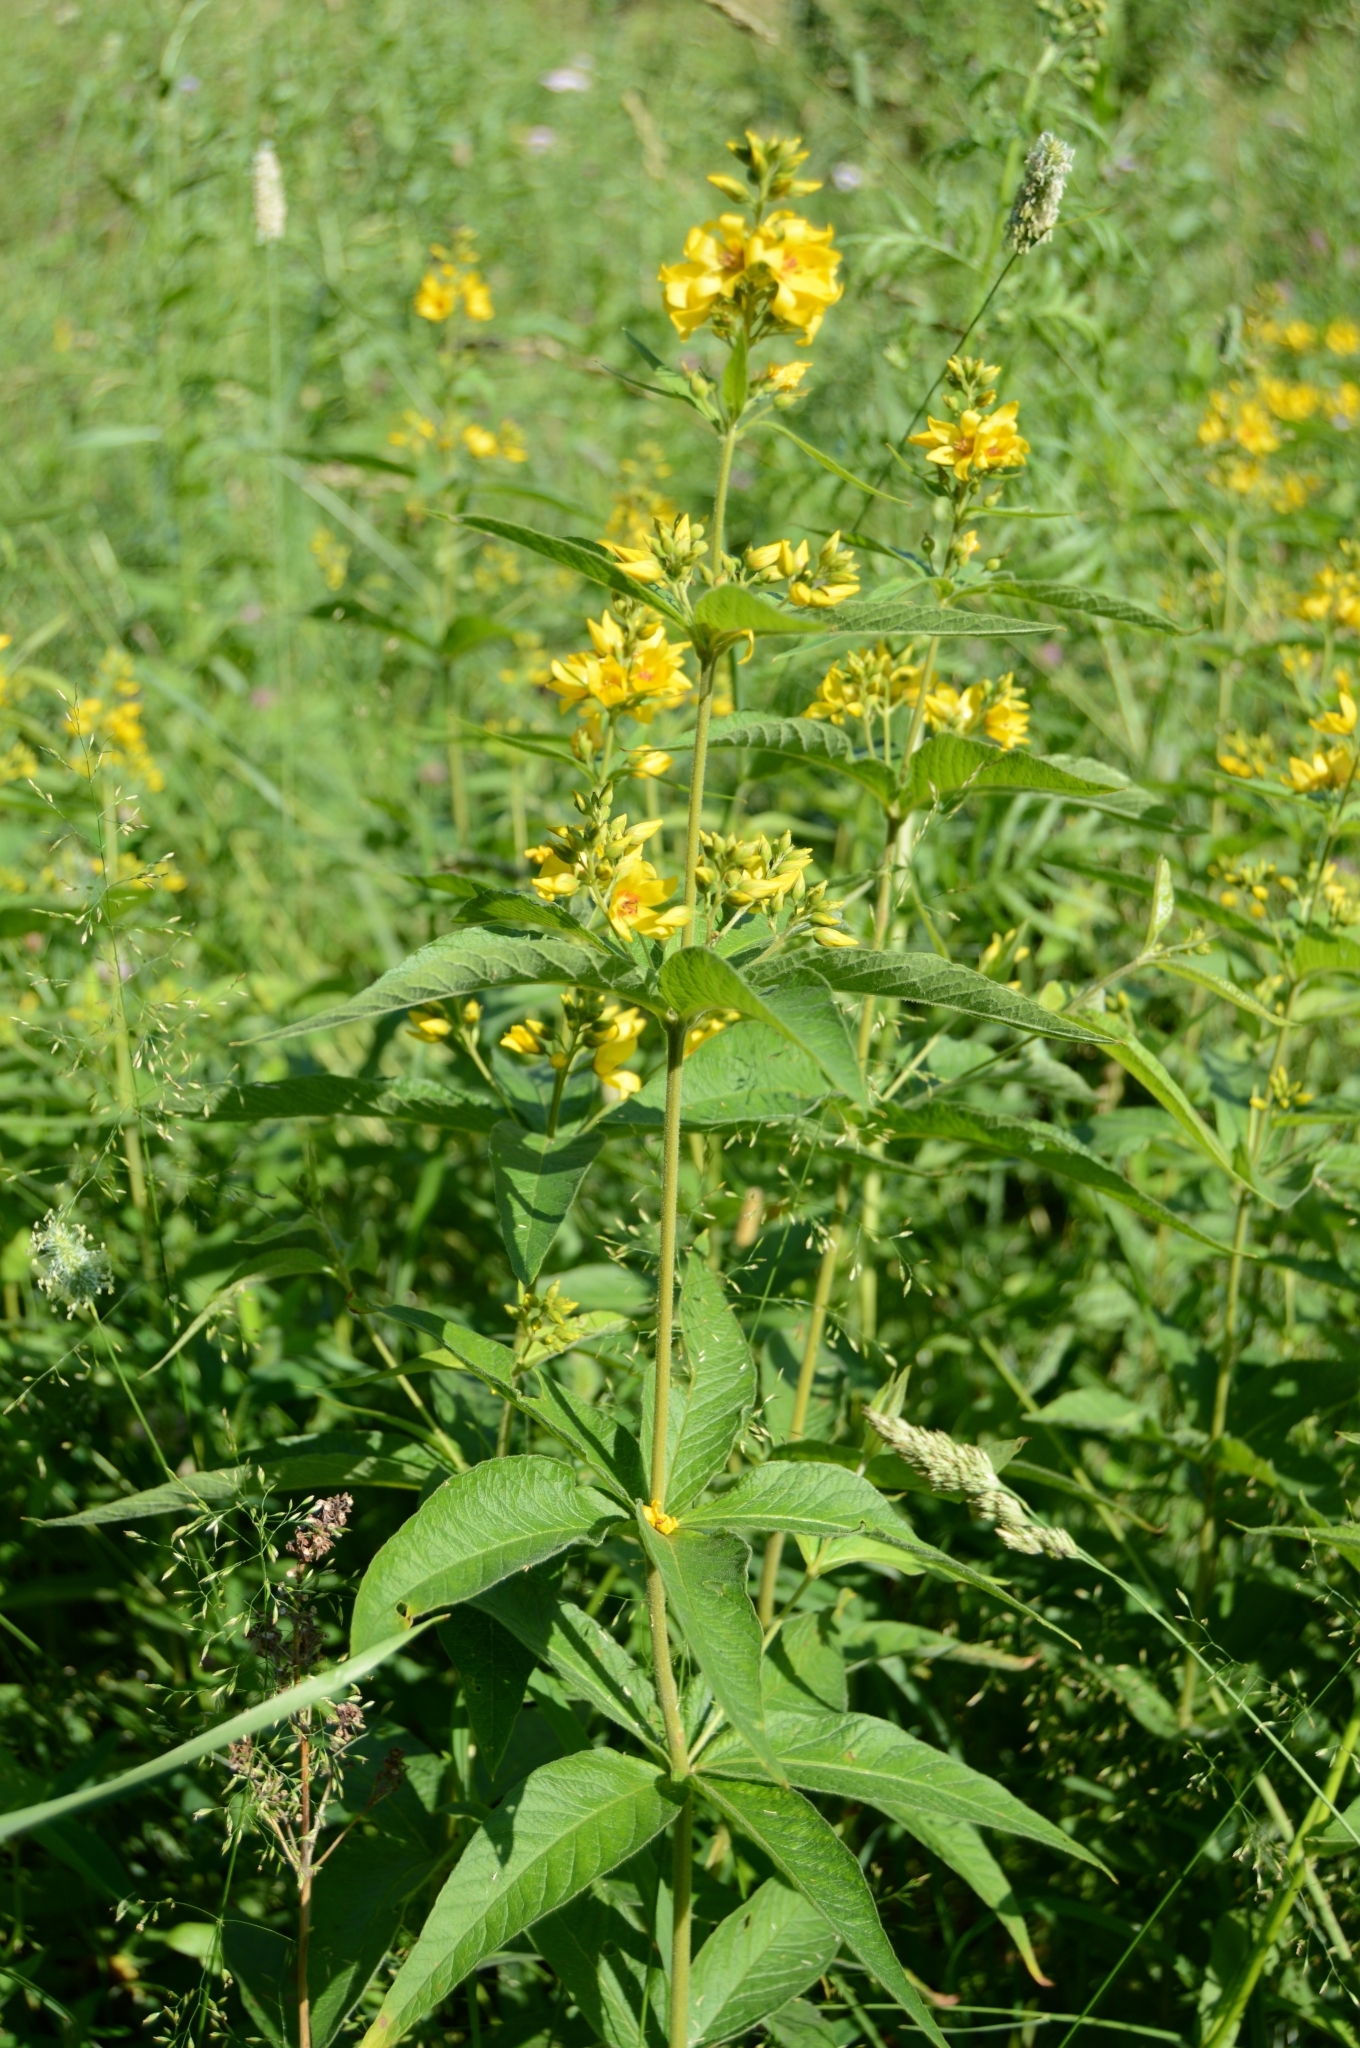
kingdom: Plantae
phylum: Tracheophyta
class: Magnoliopsida
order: Ericales
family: Primulaceae
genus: Lysimachia
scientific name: Lysimachia vulgaris
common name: Yellow loosestrife
